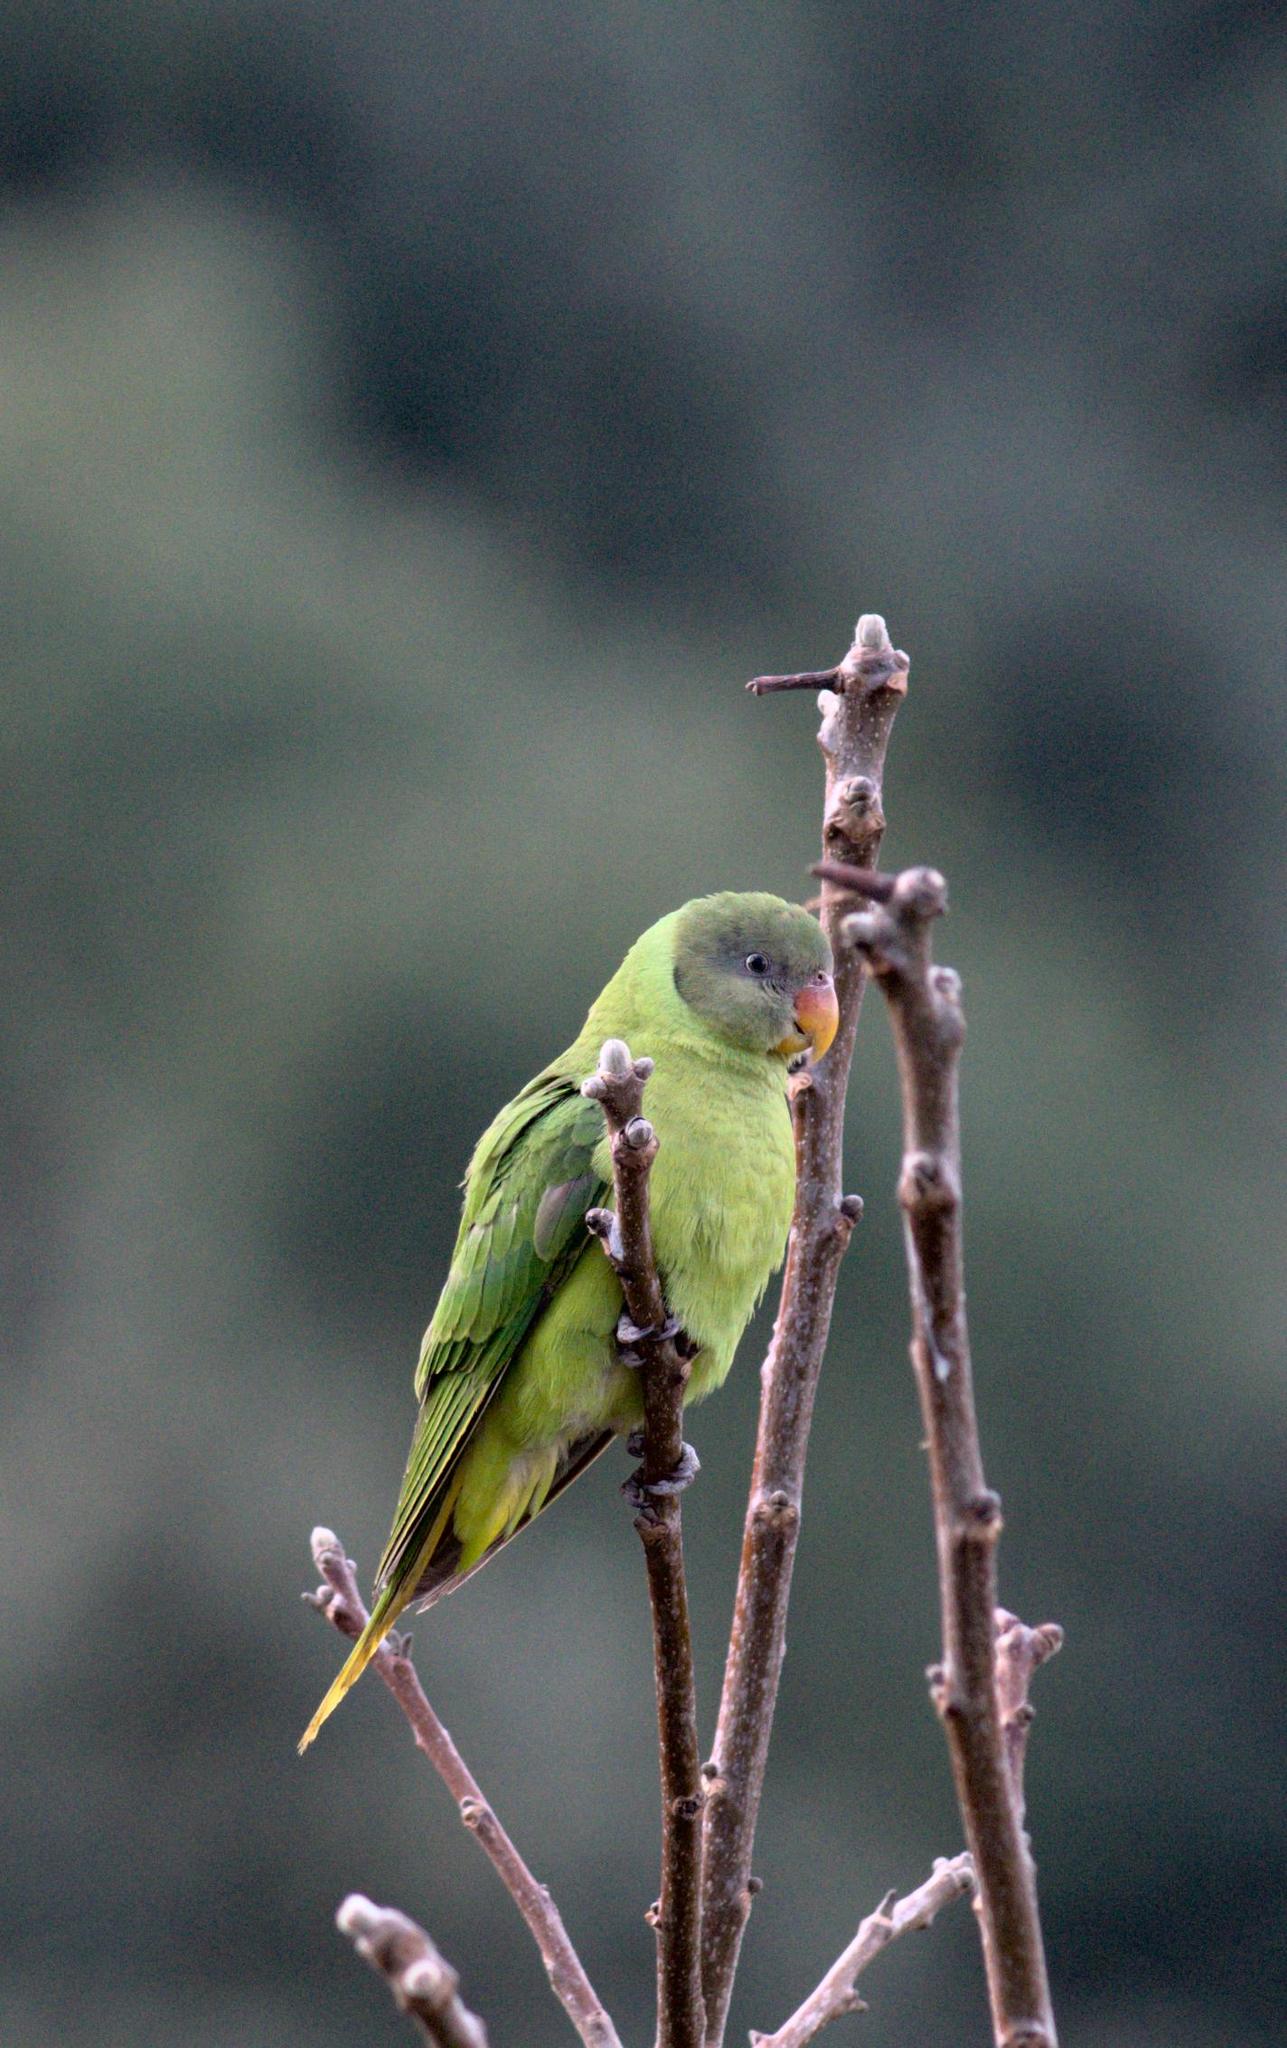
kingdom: Animalia
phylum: Chordata
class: Aves
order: Psittaciformes
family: Psittacidae
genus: Psittacula
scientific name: Psittacula himalayana
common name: Slaty-headed parakeet
